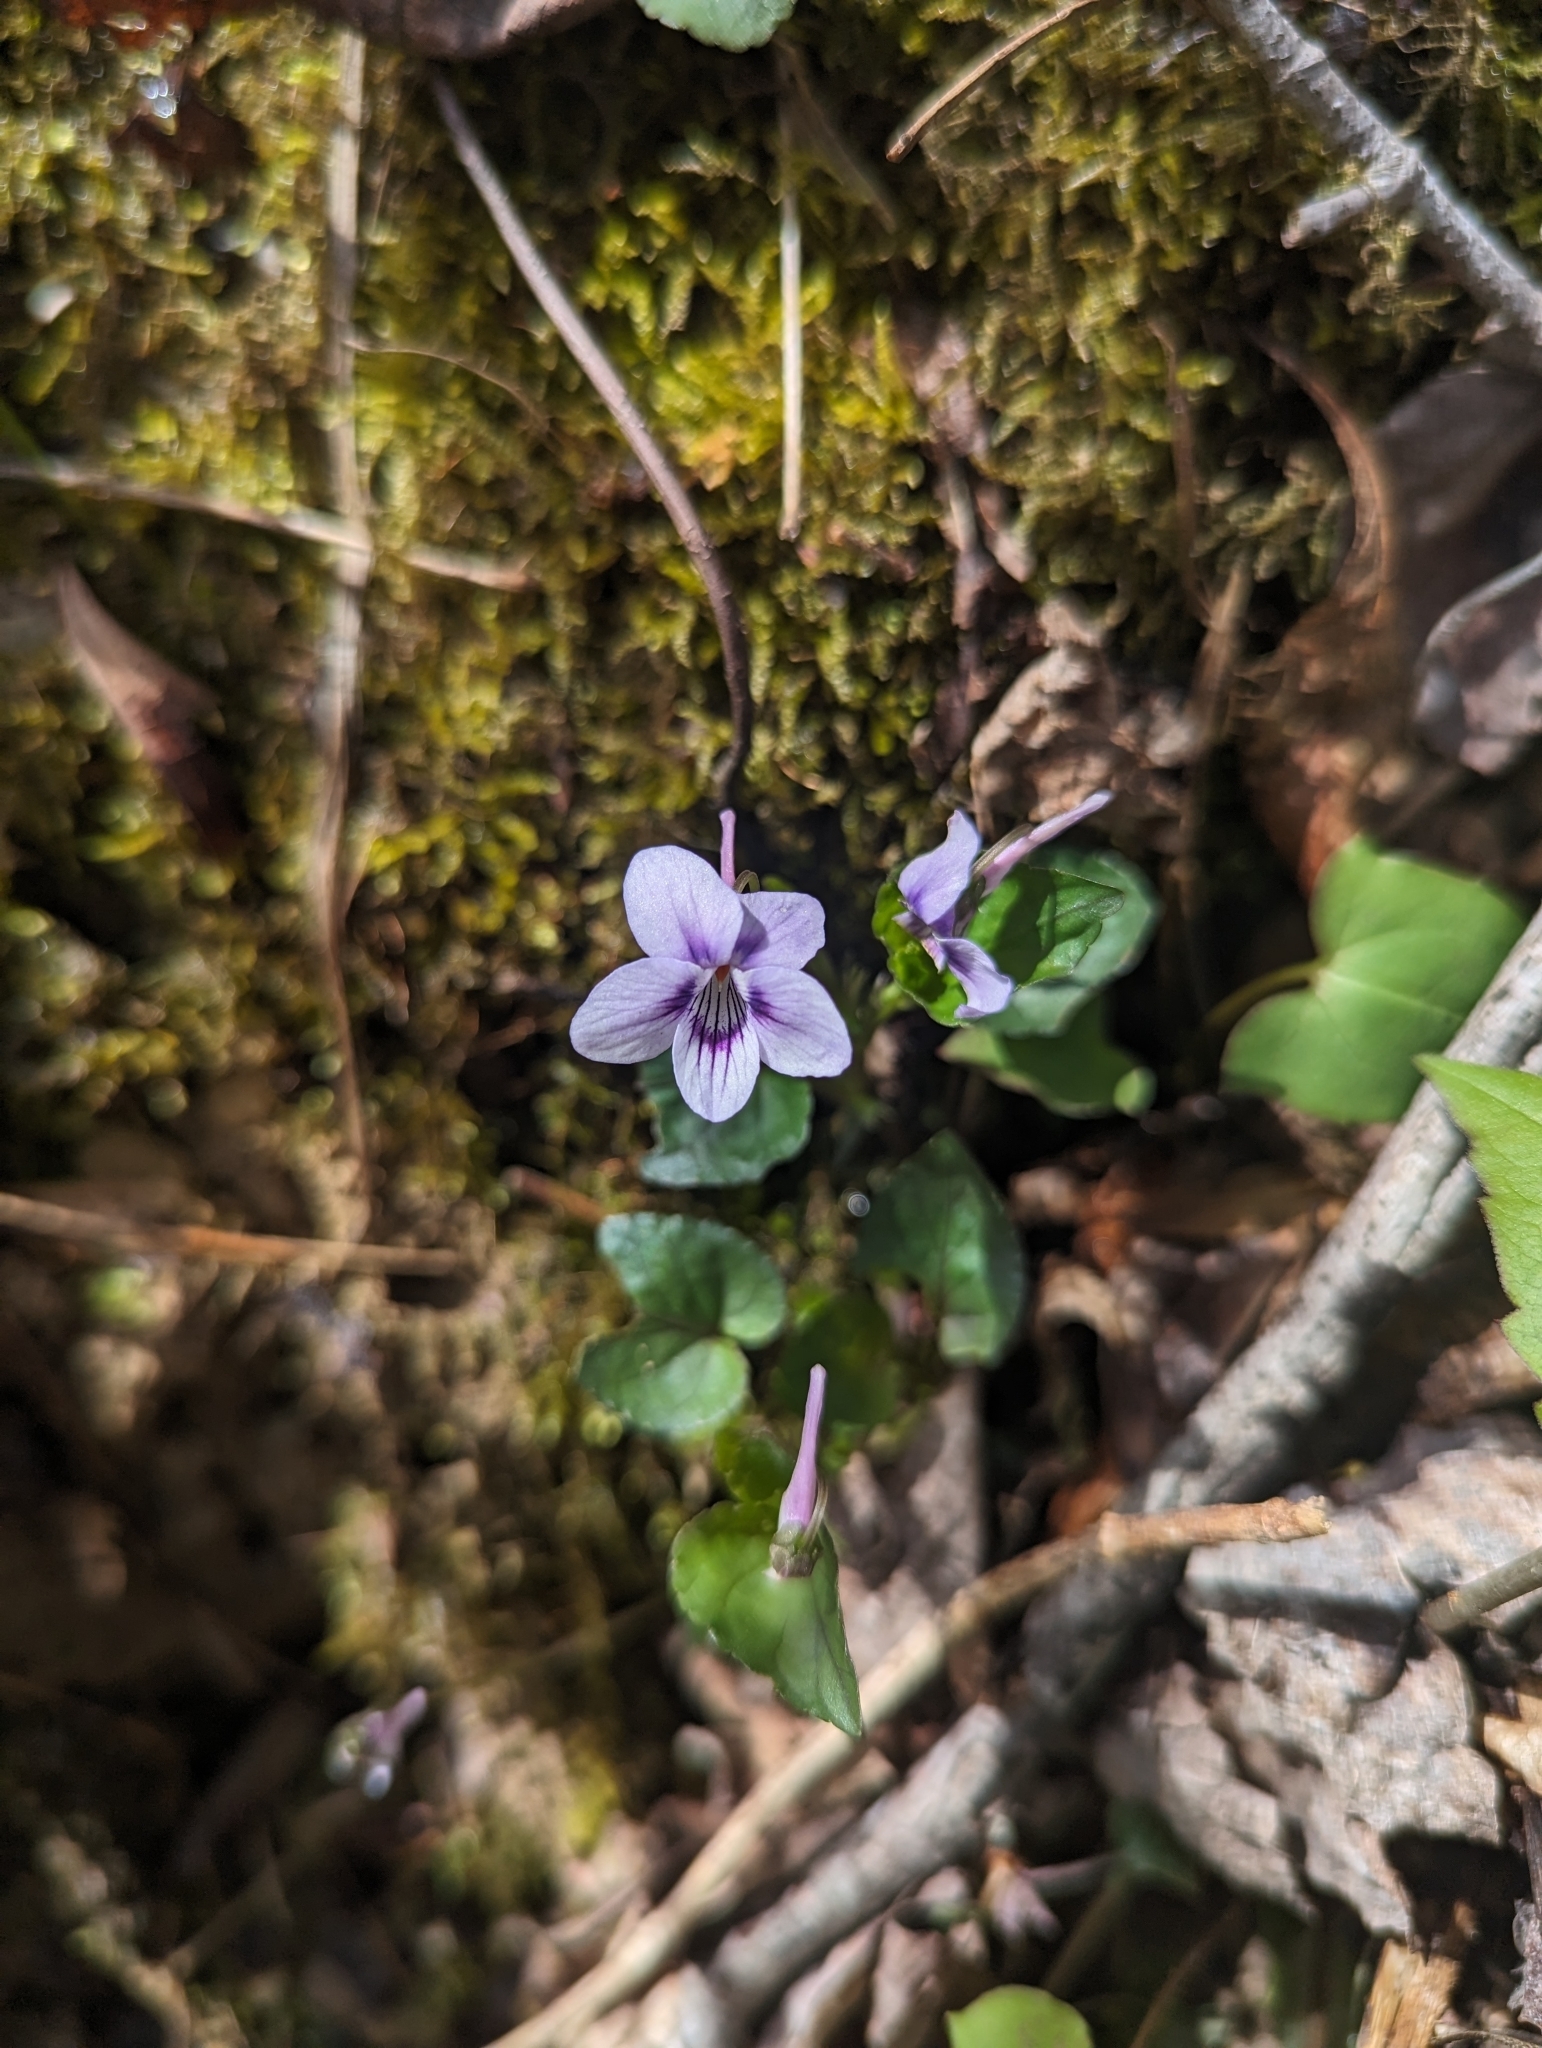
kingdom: Plantae
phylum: Tracheophyta
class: Magnoliopsida
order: Malpighiales
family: Violaceae
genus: Viola
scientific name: Viola rostrata
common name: Long-spur violet
